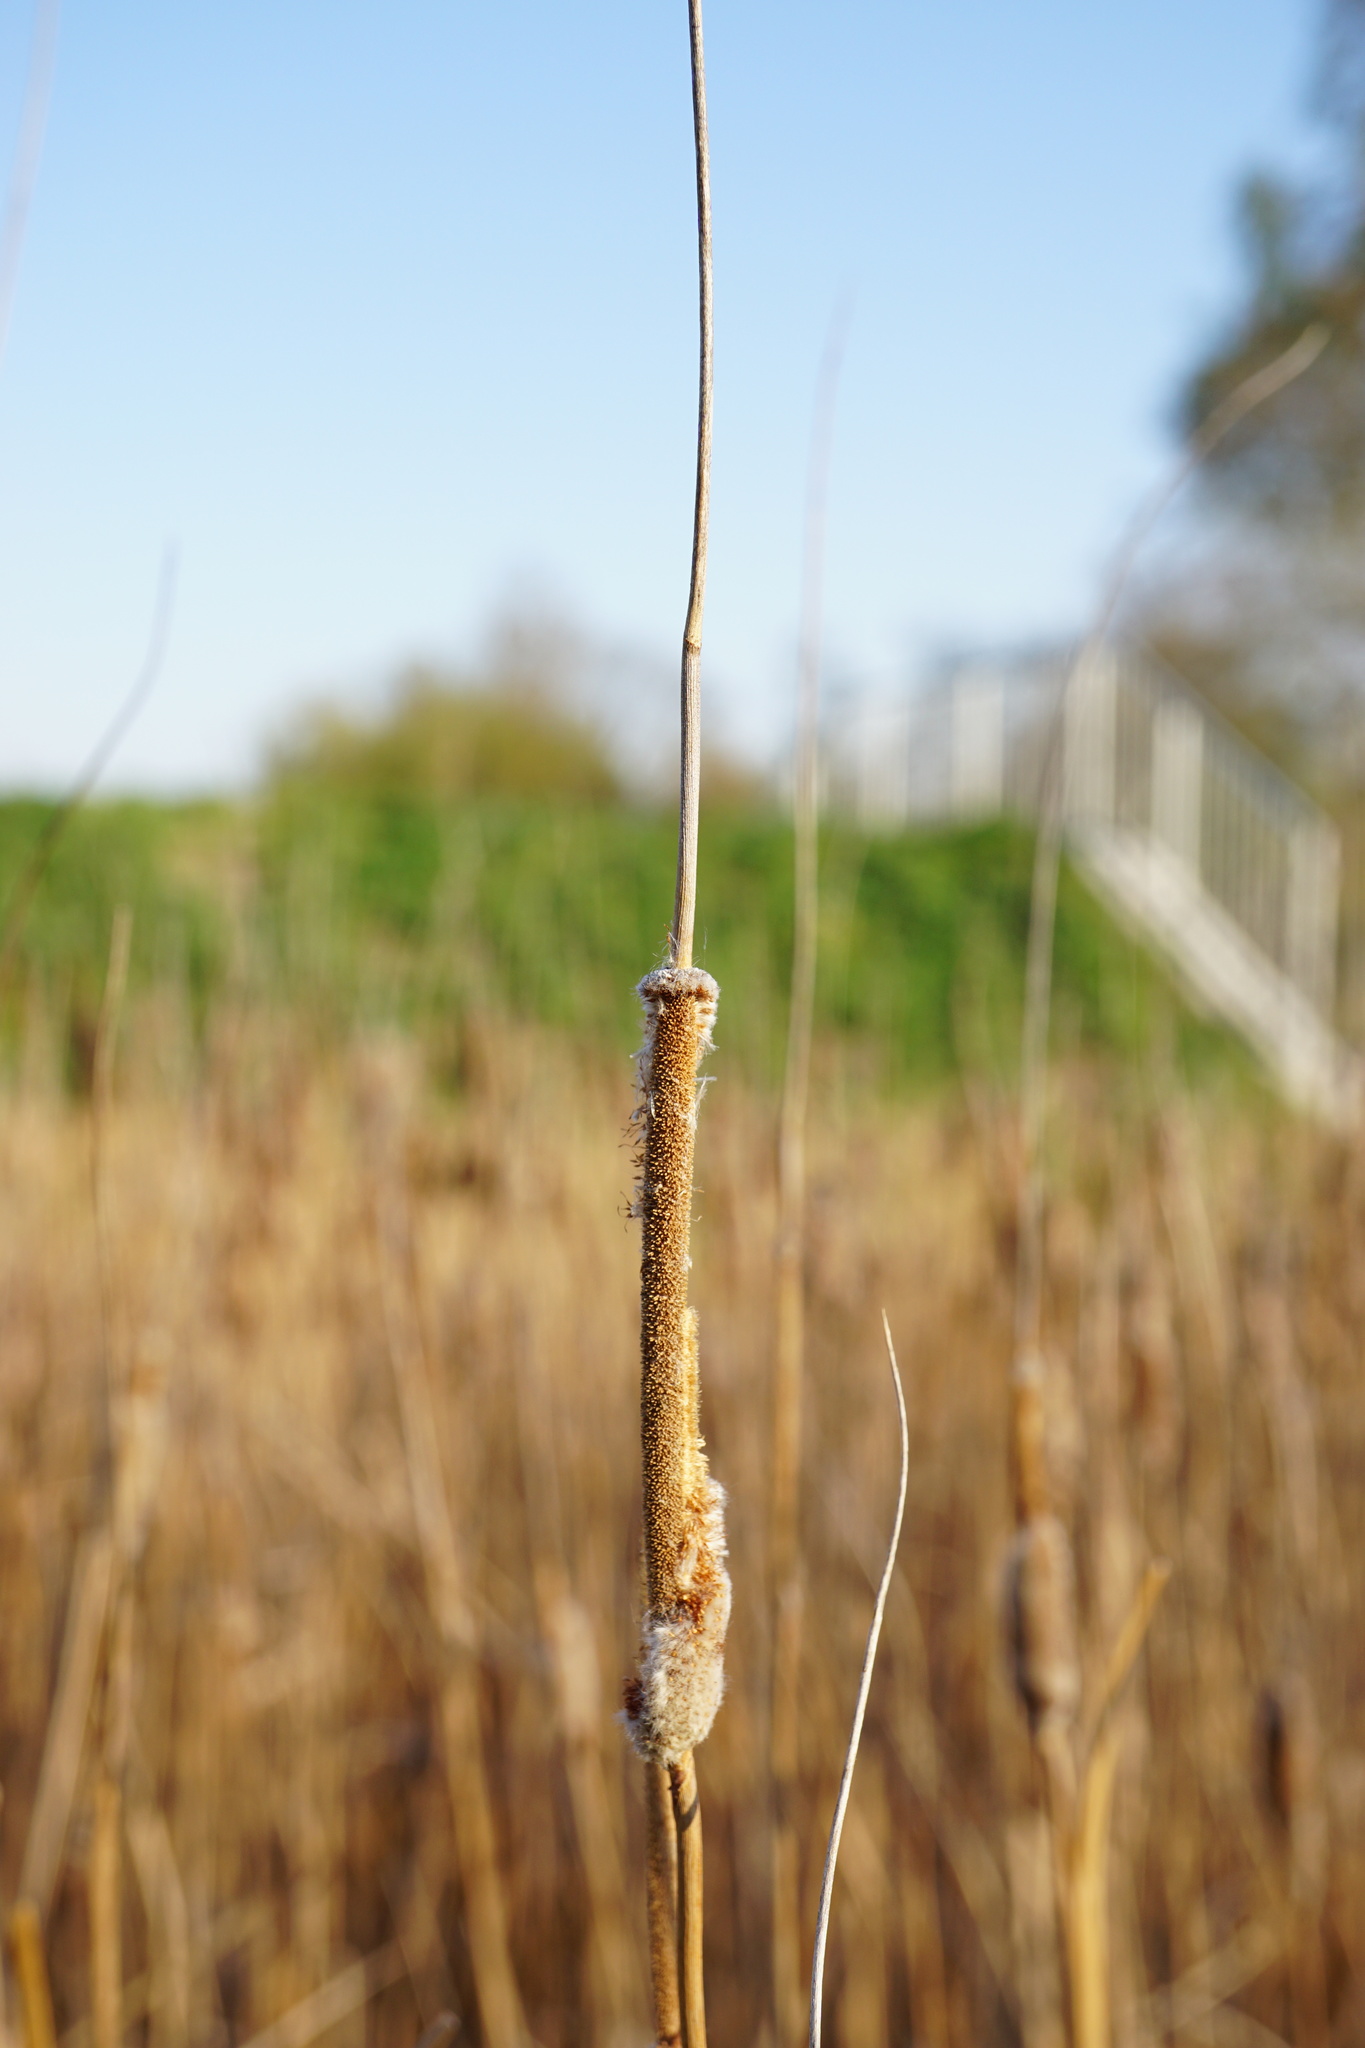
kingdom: Plantae
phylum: Tracheophyta
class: Liliopsida
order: Poales
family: Typhaceae
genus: Typha
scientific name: Typha laxmannii
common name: Laxman’s bulrush
